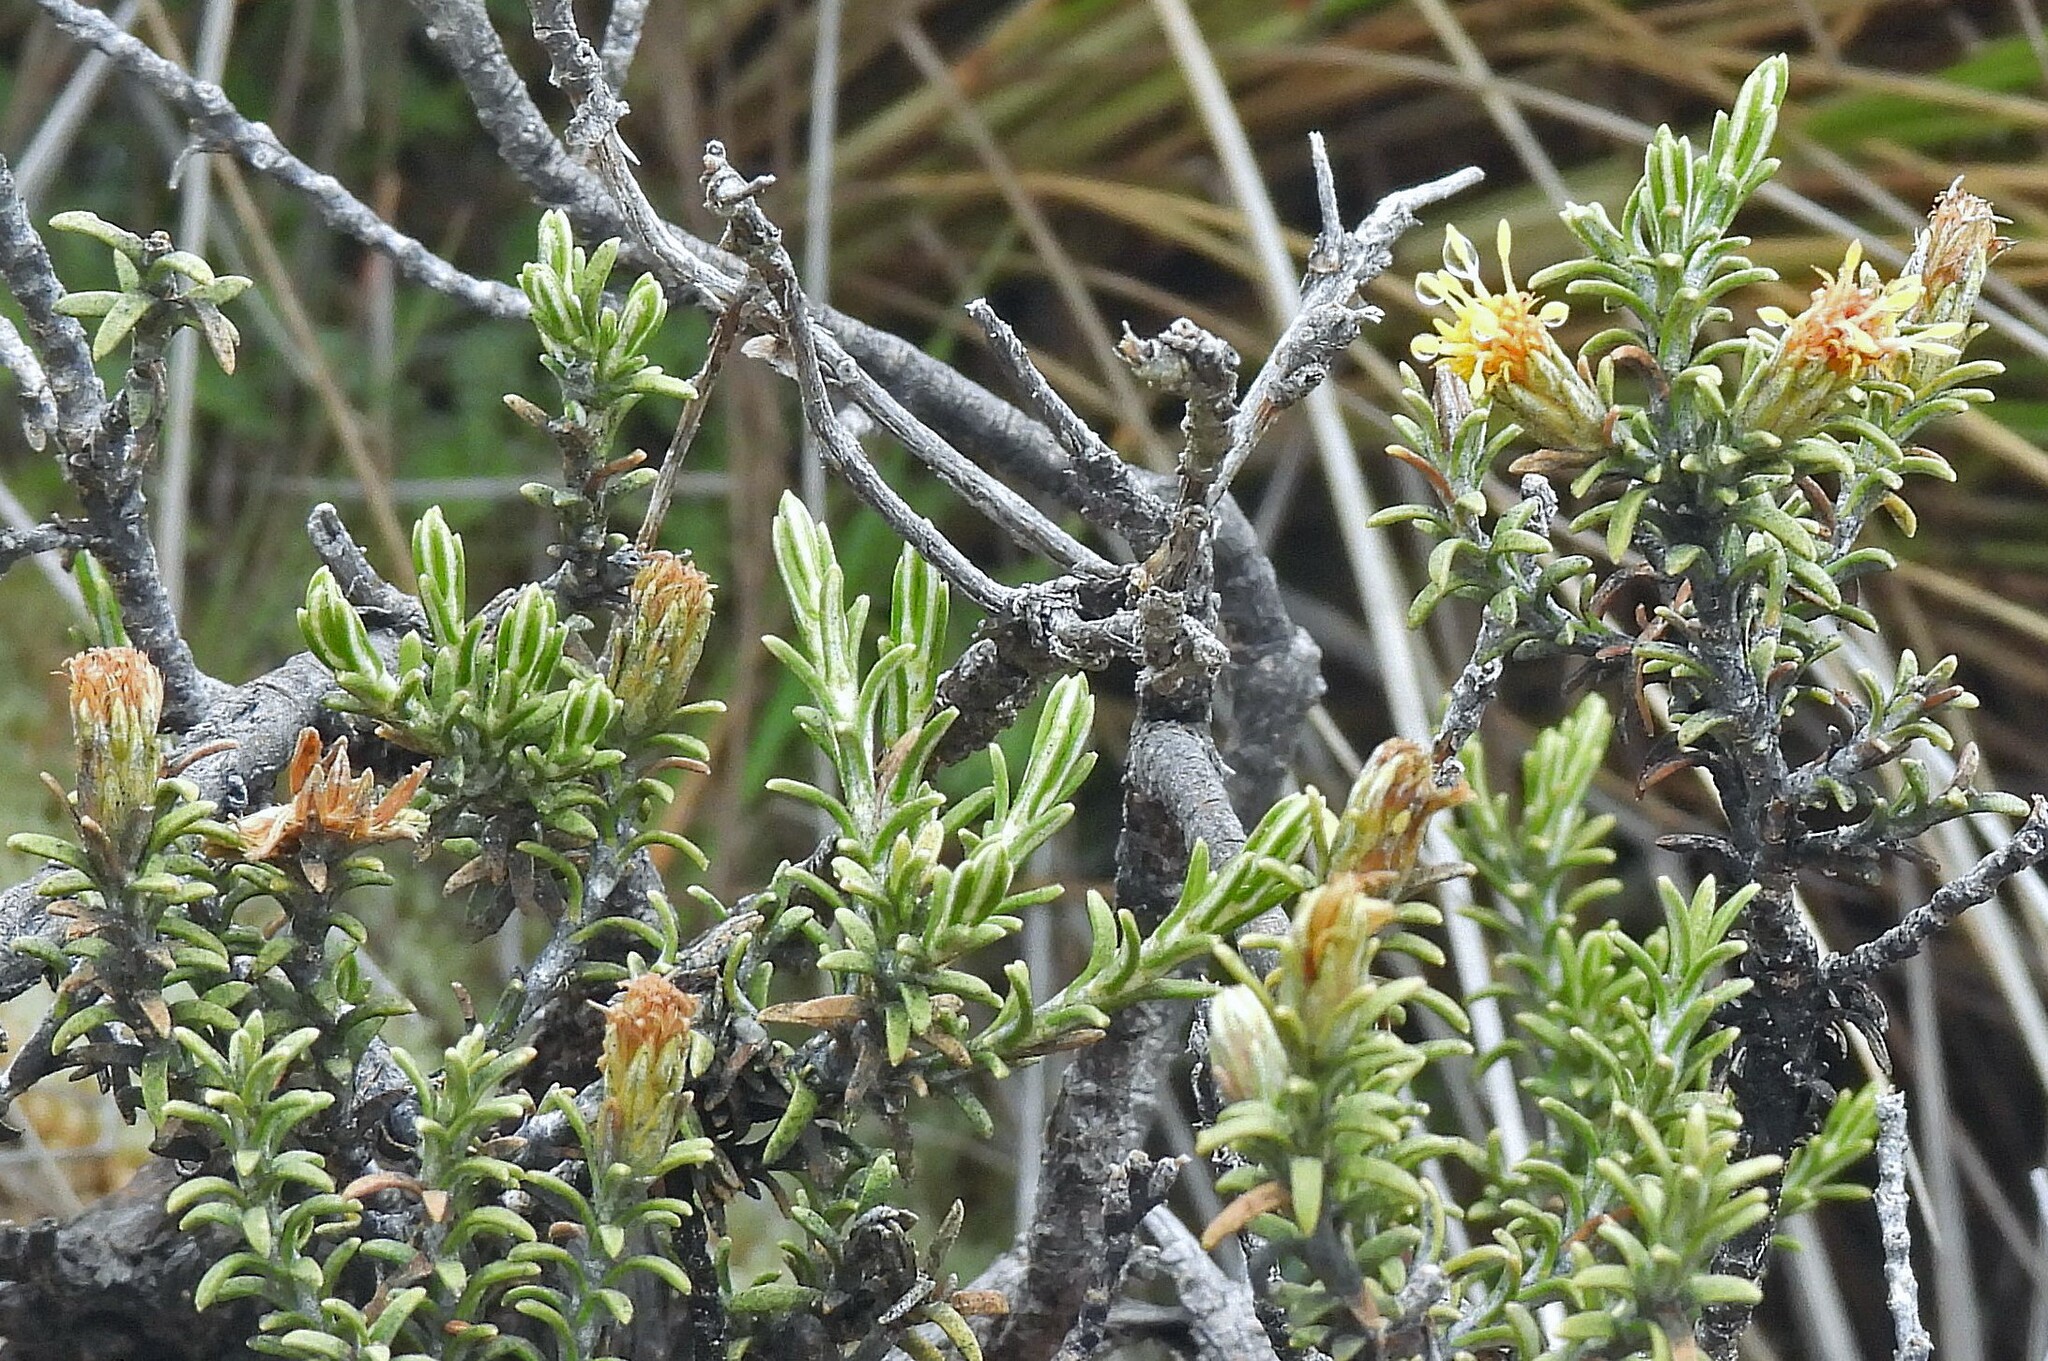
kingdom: Plantae
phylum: Tracheophyta
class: Magnoliopsida
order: Asterales
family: Asteraceae
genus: Parastrephia
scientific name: Parastrephia lucida
